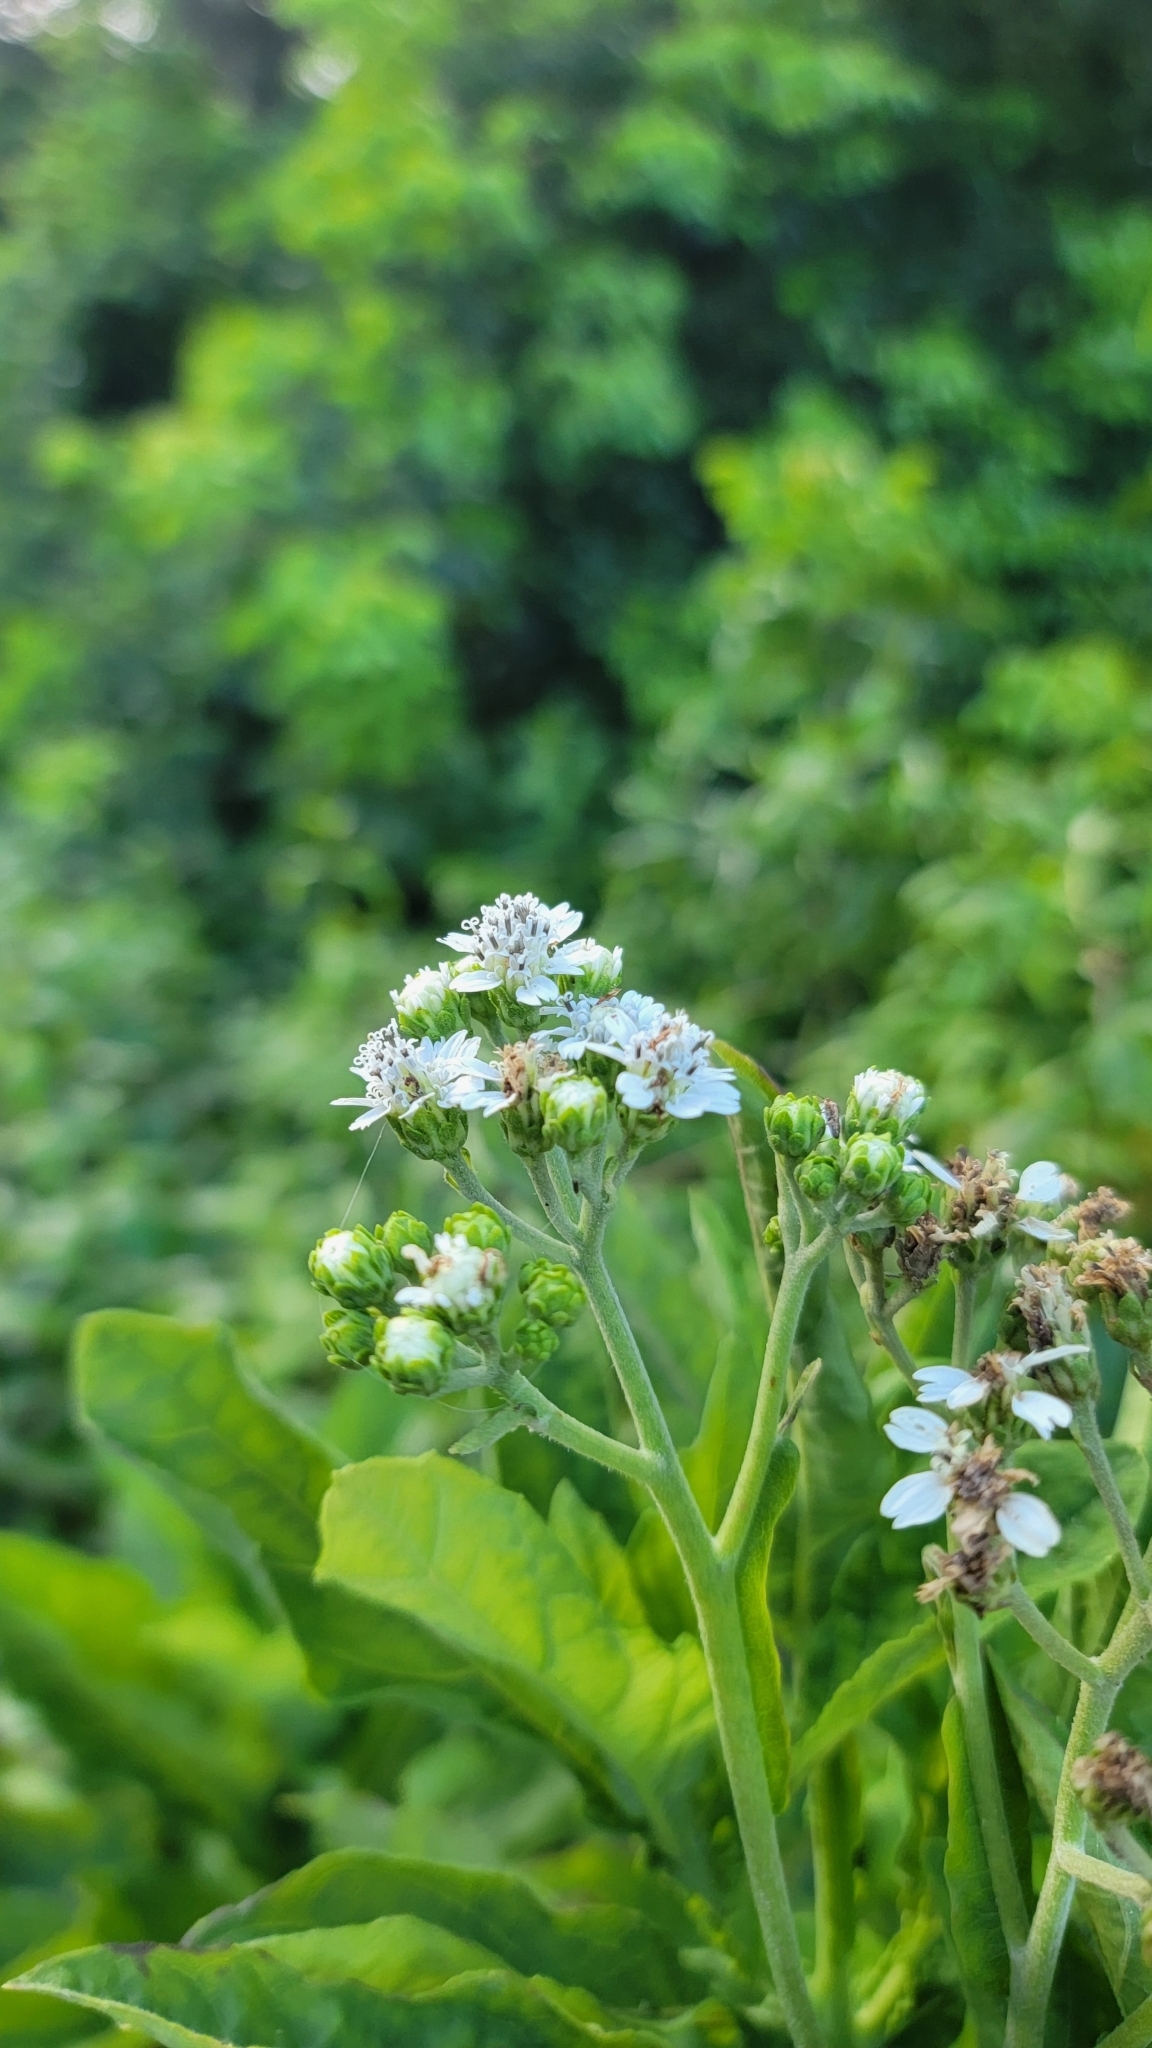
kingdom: Plantae
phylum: Tracheophyta
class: Magnoliopsida
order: Asterales
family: Asteraceae
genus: Verbesina
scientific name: Verbesina virginica
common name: Frostweed
